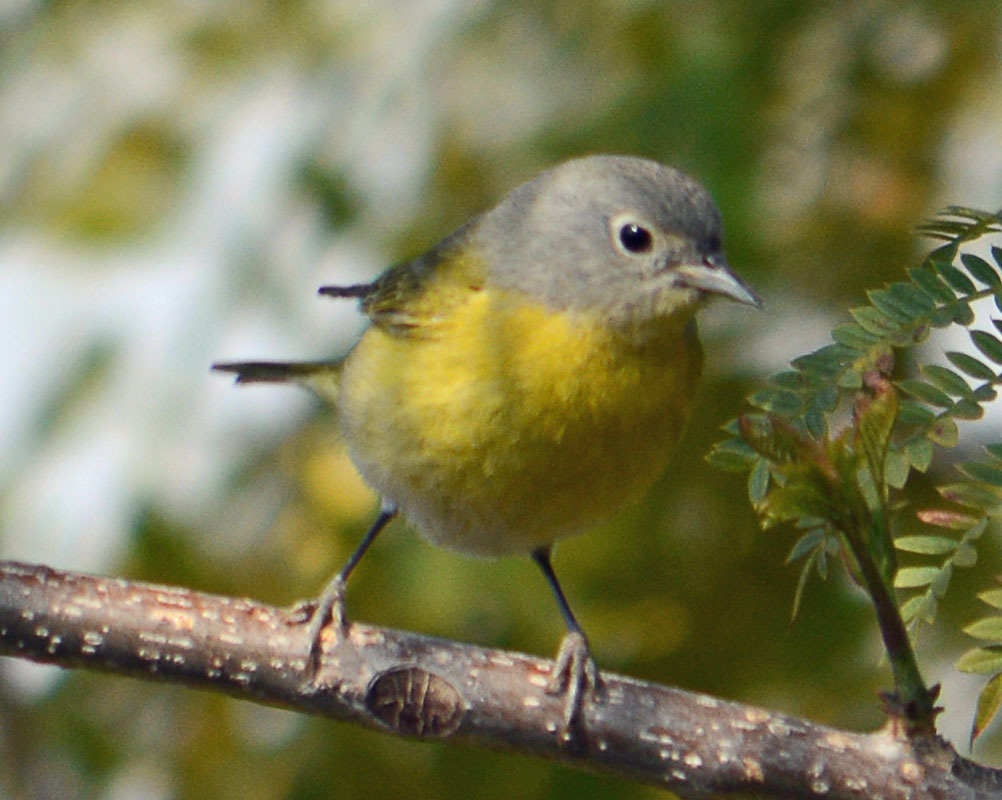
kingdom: Animalia
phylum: Chordata
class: Aves
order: Passeriformes
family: Parulidae
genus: Leiothlypis
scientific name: Leiothlypis ruficapilla
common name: Nashville warbler
